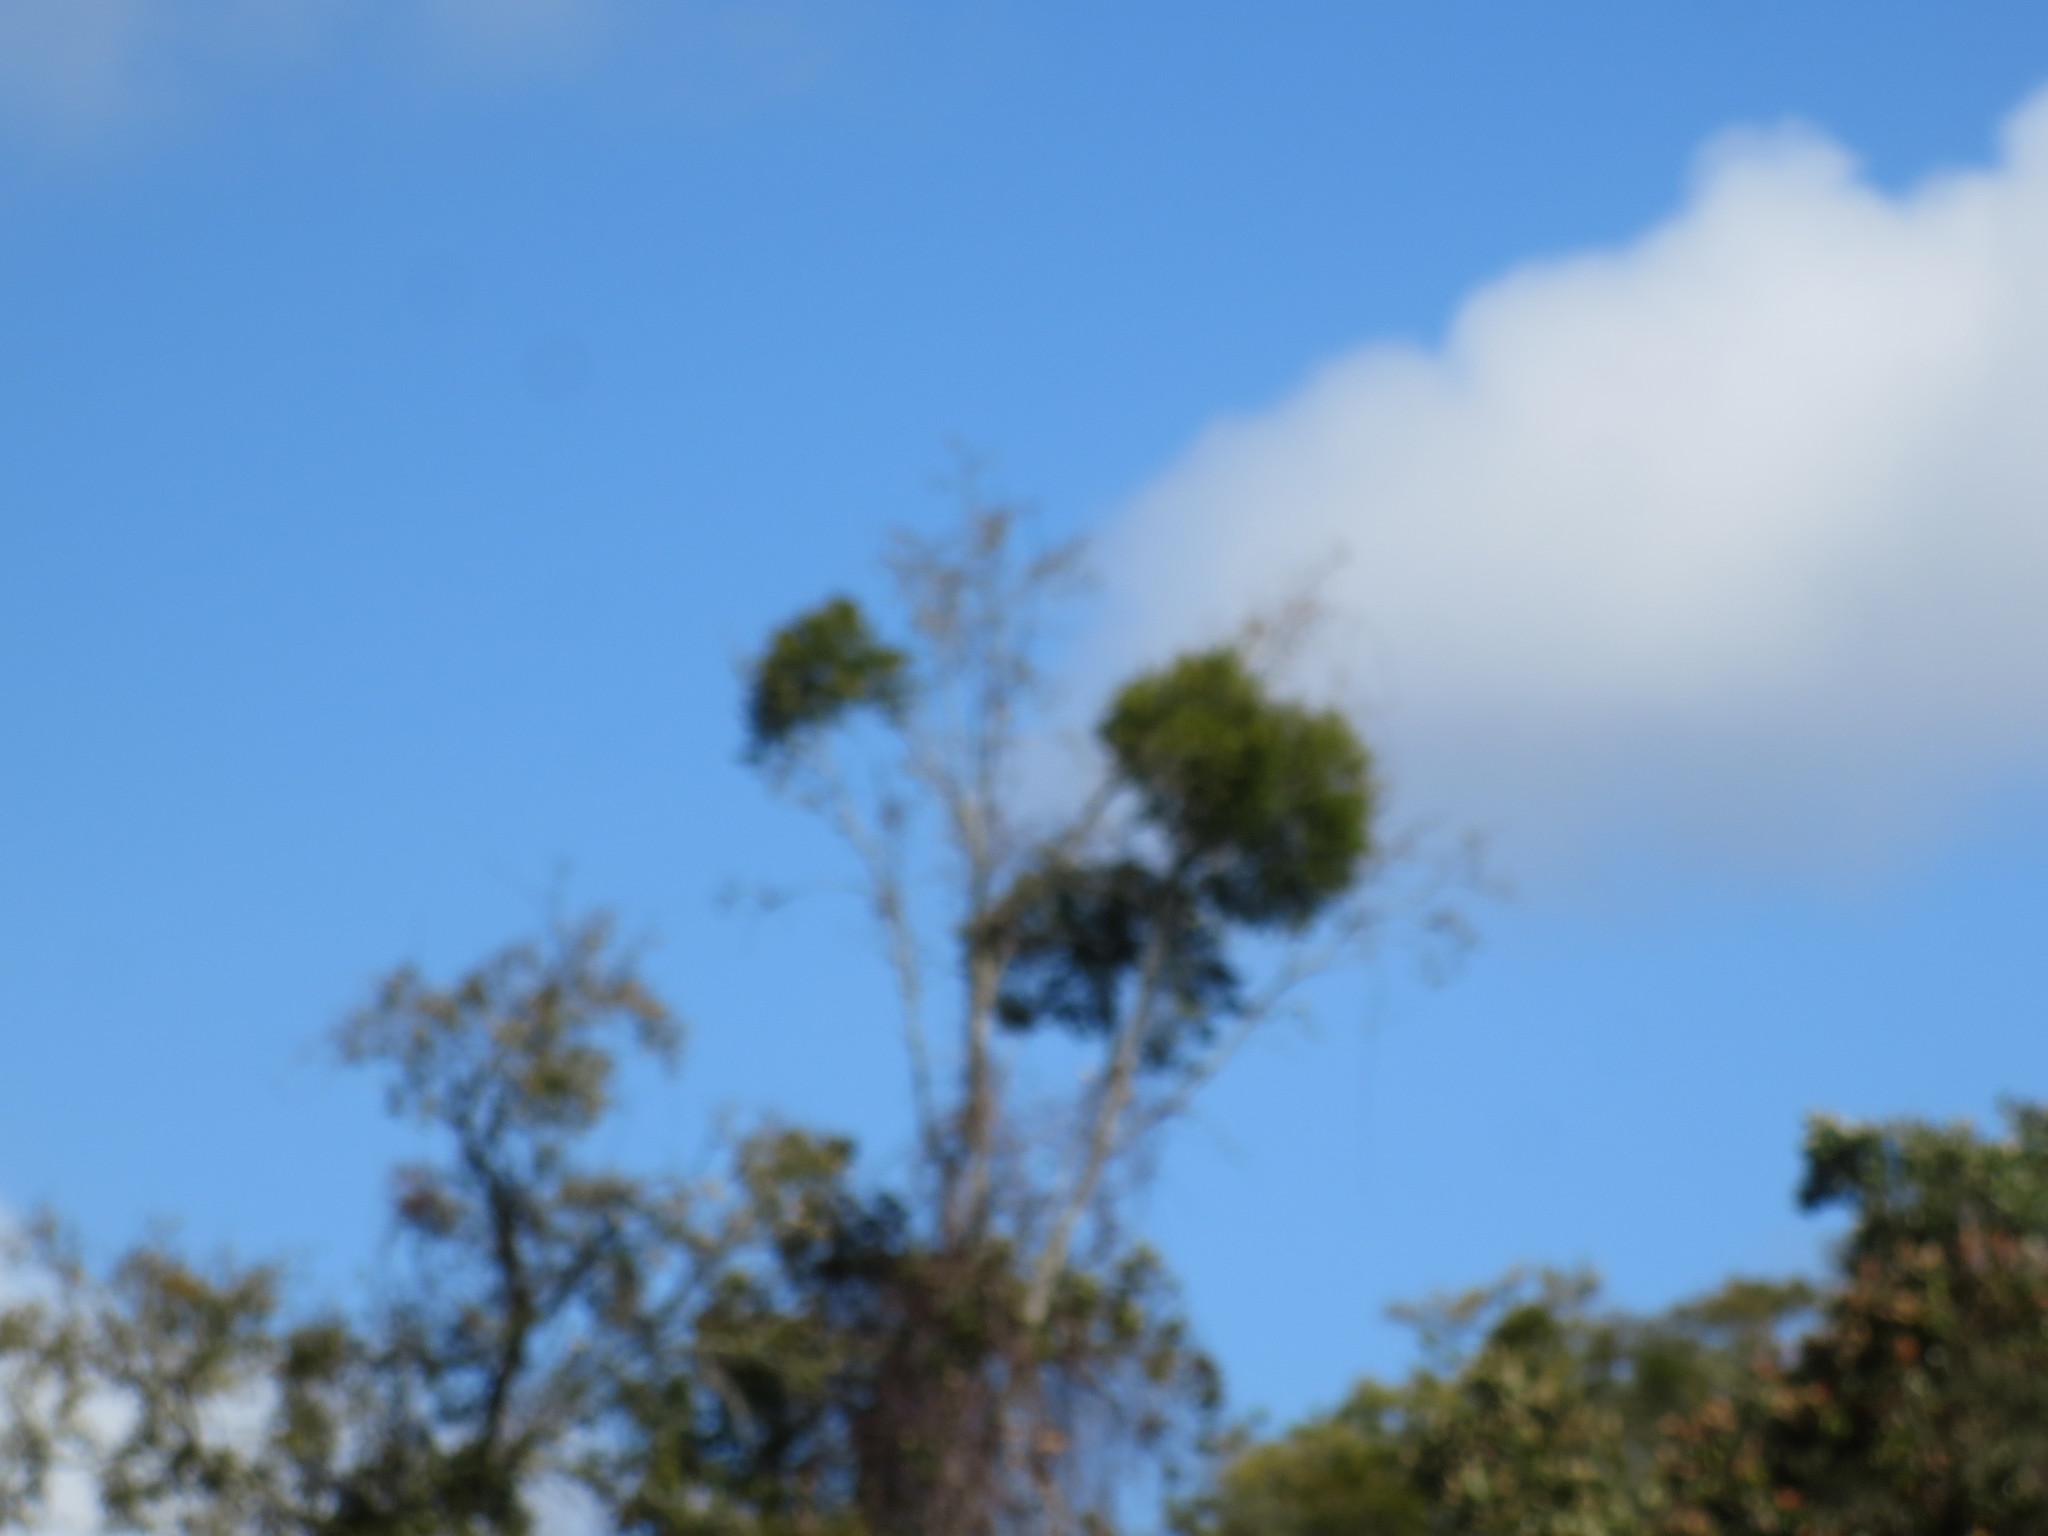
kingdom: Plantae
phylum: Tracheophyta
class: Magnoliopsida
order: Santalales
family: Viscaceae
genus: Phoradendron
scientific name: Phoradendron leucarpum
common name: Pacific mistletoe
